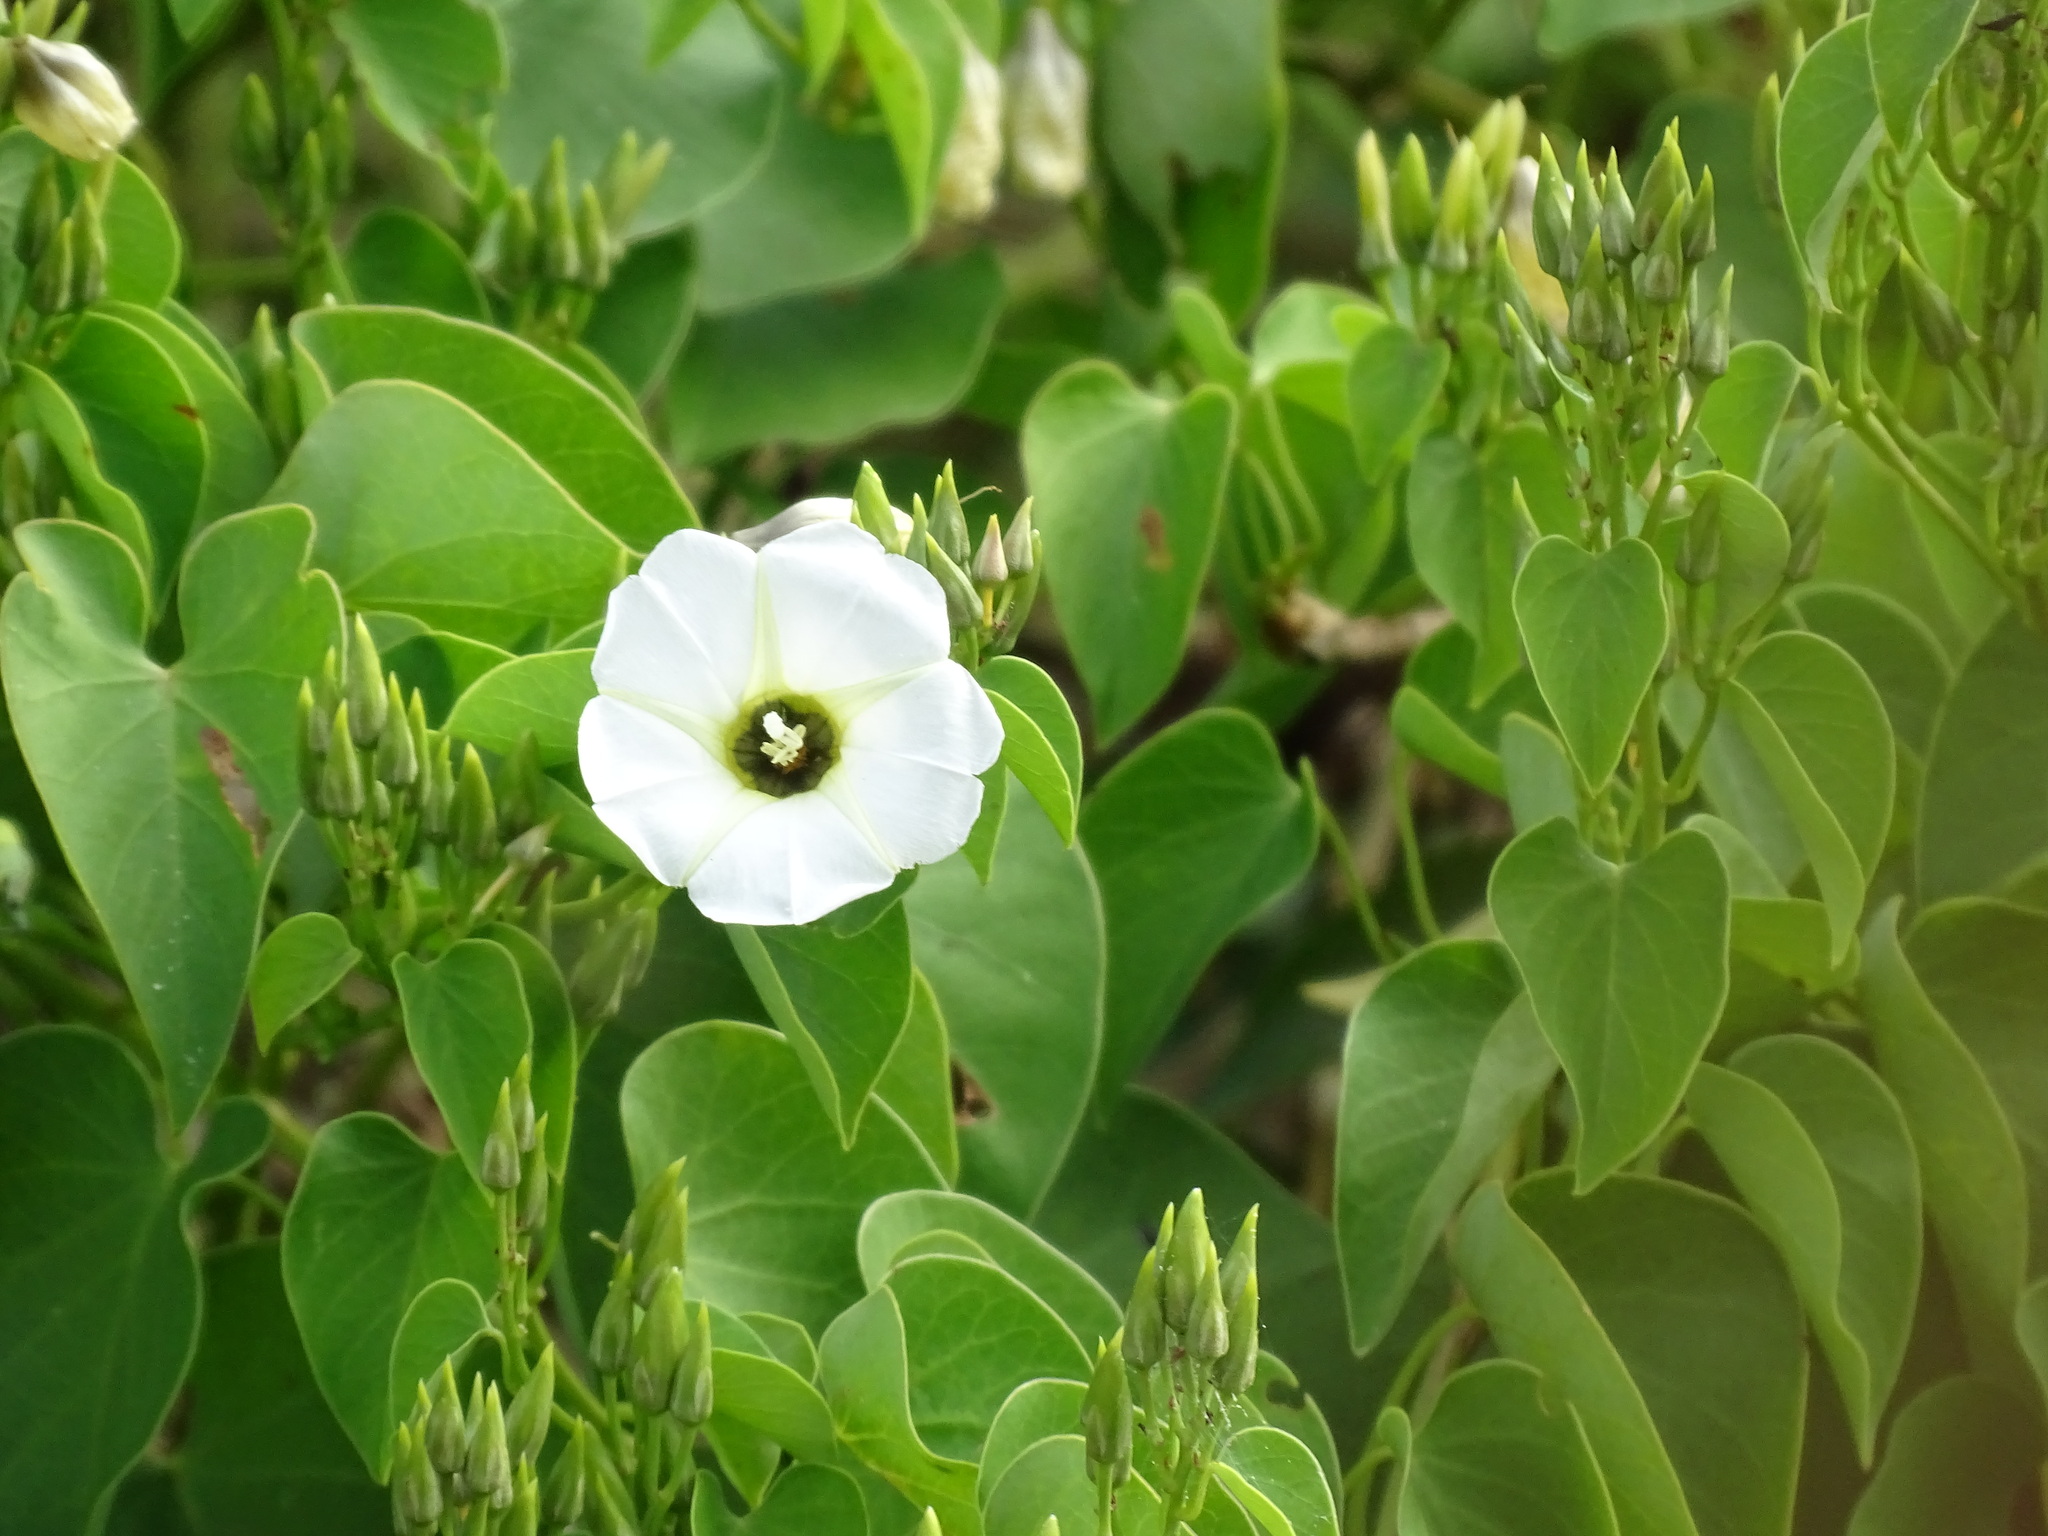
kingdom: Plantae
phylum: Tracheophyta
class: Magnoliopsida
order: Solanales
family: Convolvulaceae
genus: Ipomoea
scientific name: Ipomoea corymbosa
